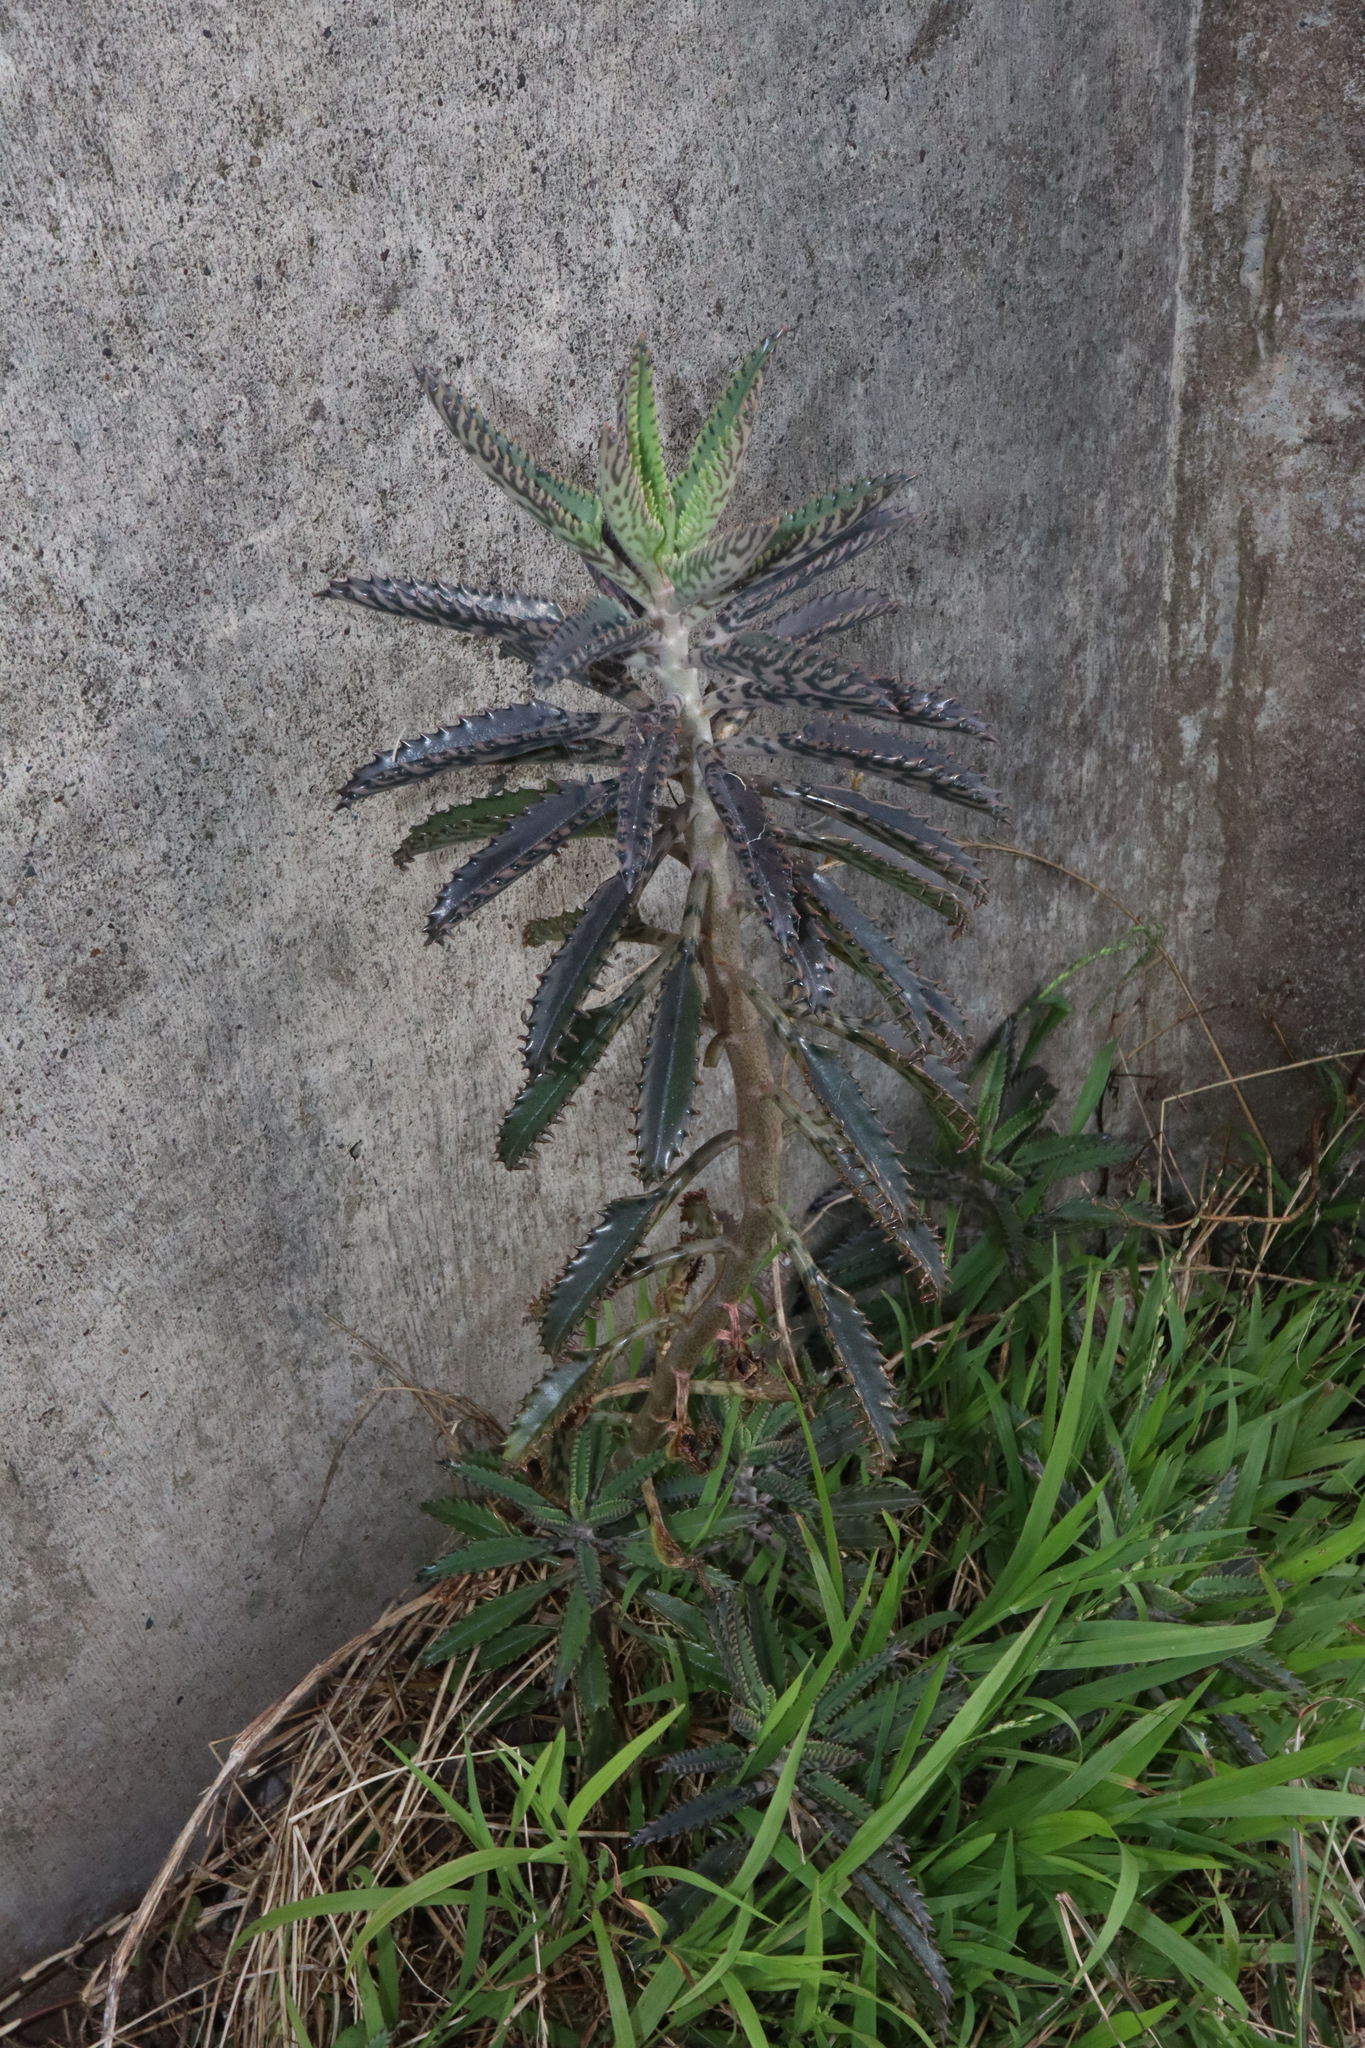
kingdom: Plantae
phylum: Tracheophyta
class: Magnoliopsida
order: Saxifragales
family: Crassulaceae
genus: Kalanchoe
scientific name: Kalanchoe houghtonii
